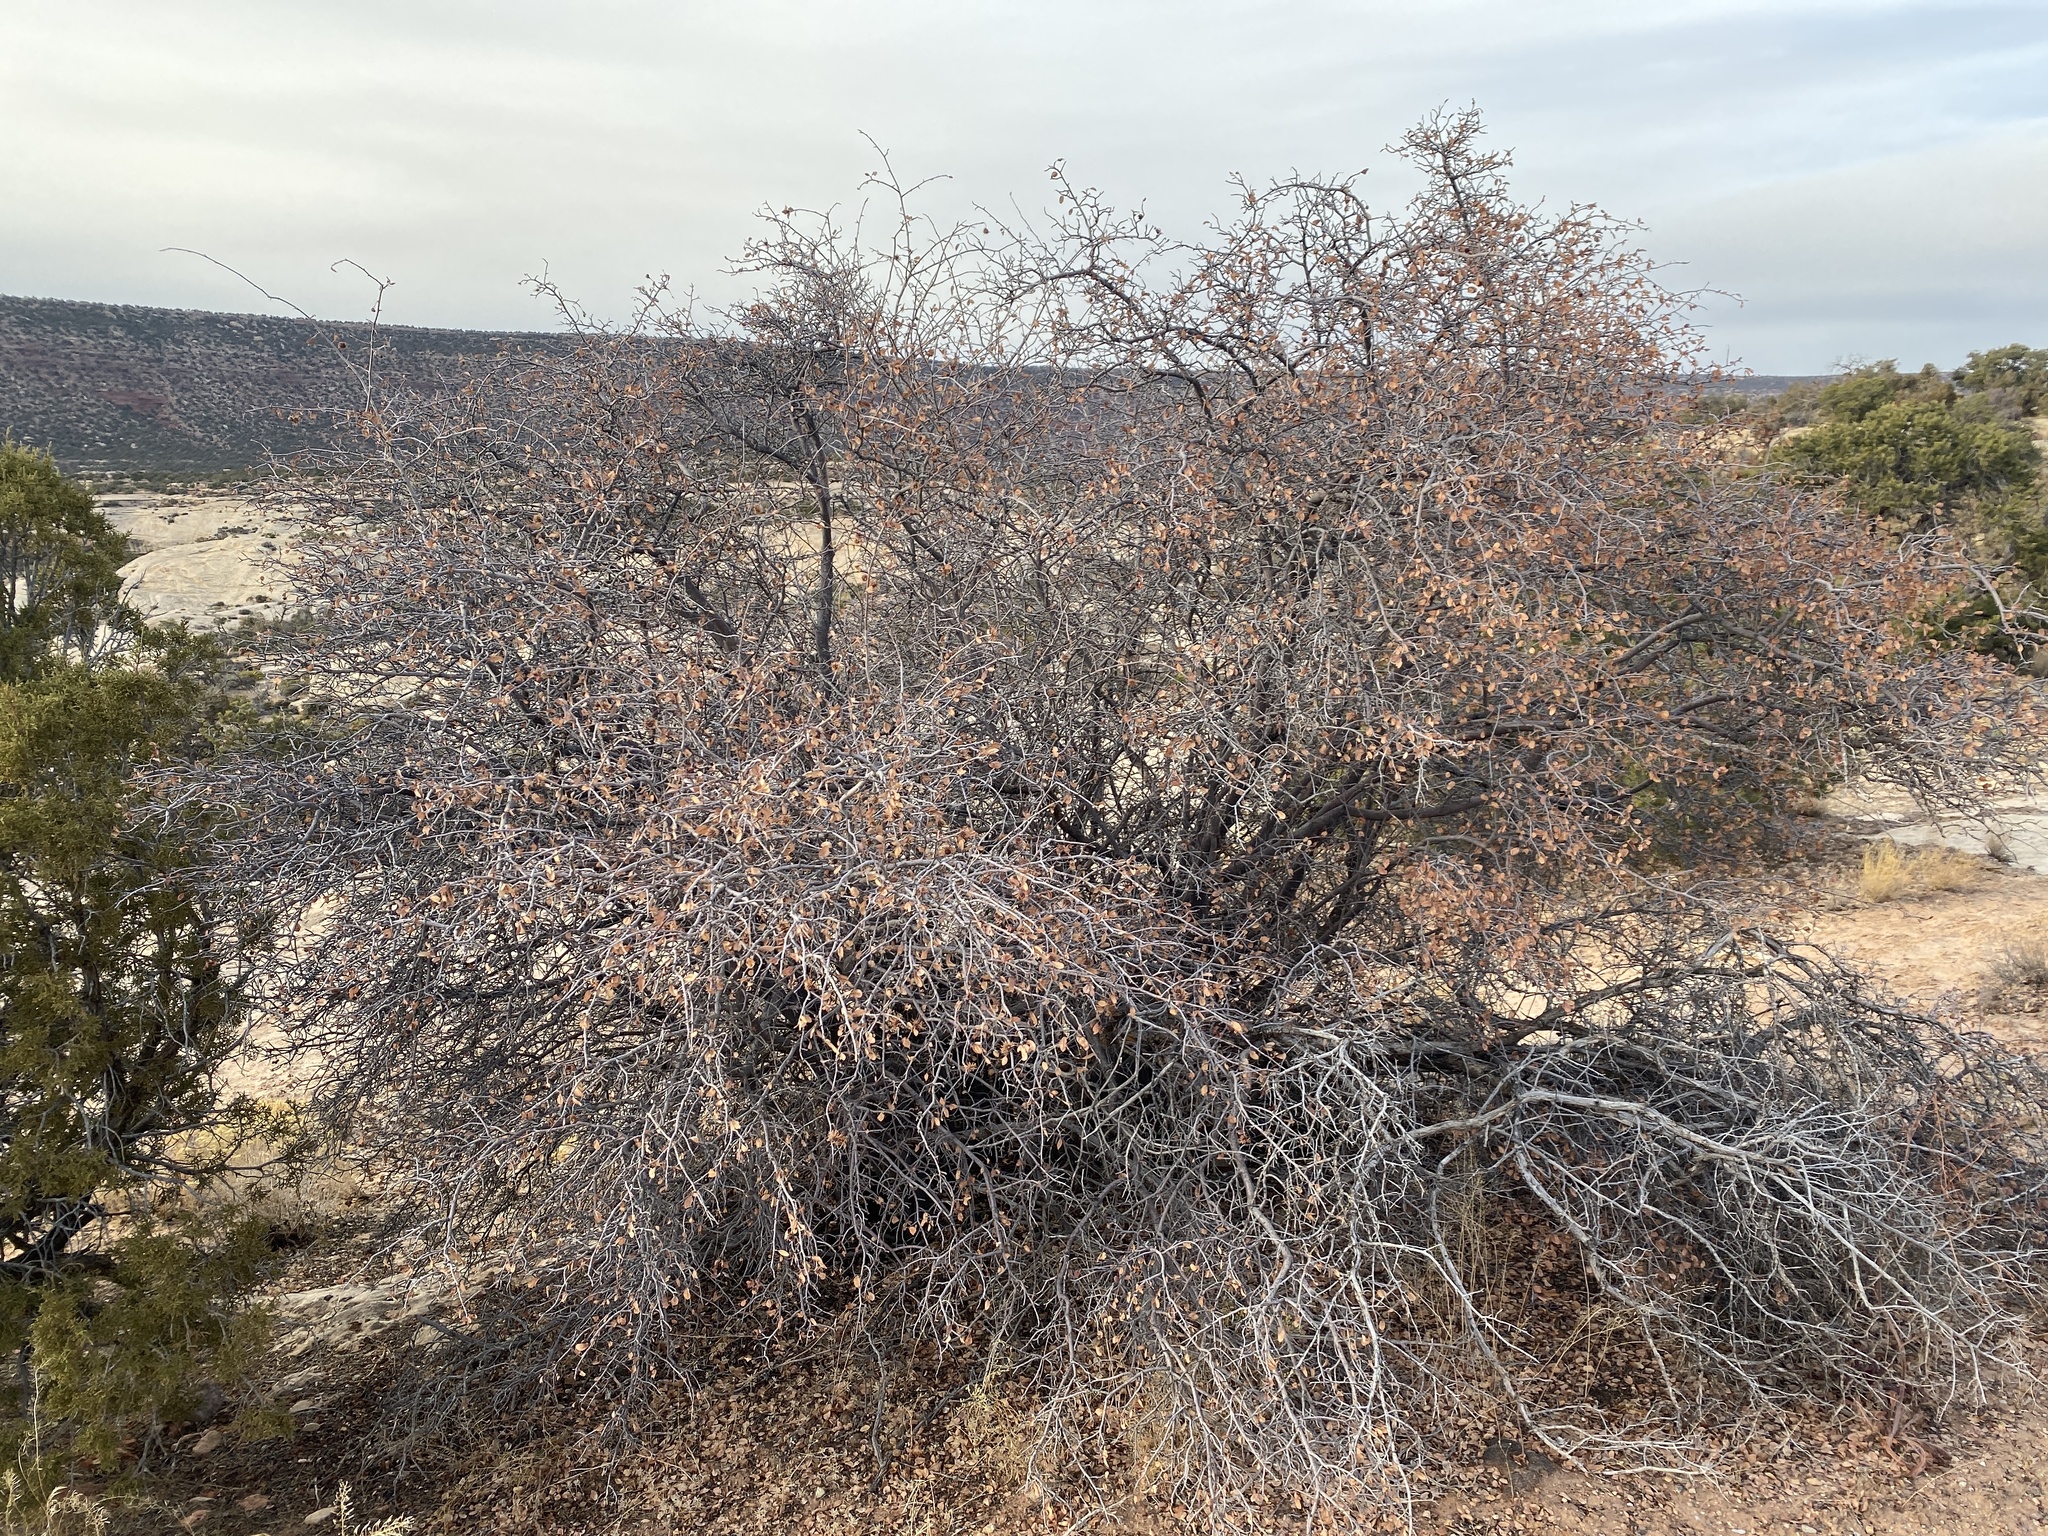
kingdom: Plantae
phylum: Tracheophyta
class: Magnoliopsida
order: Rosales
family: Rosaceae
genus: Amelanchier
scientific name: Amelanchier utahensis
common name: Utah serviceberry
